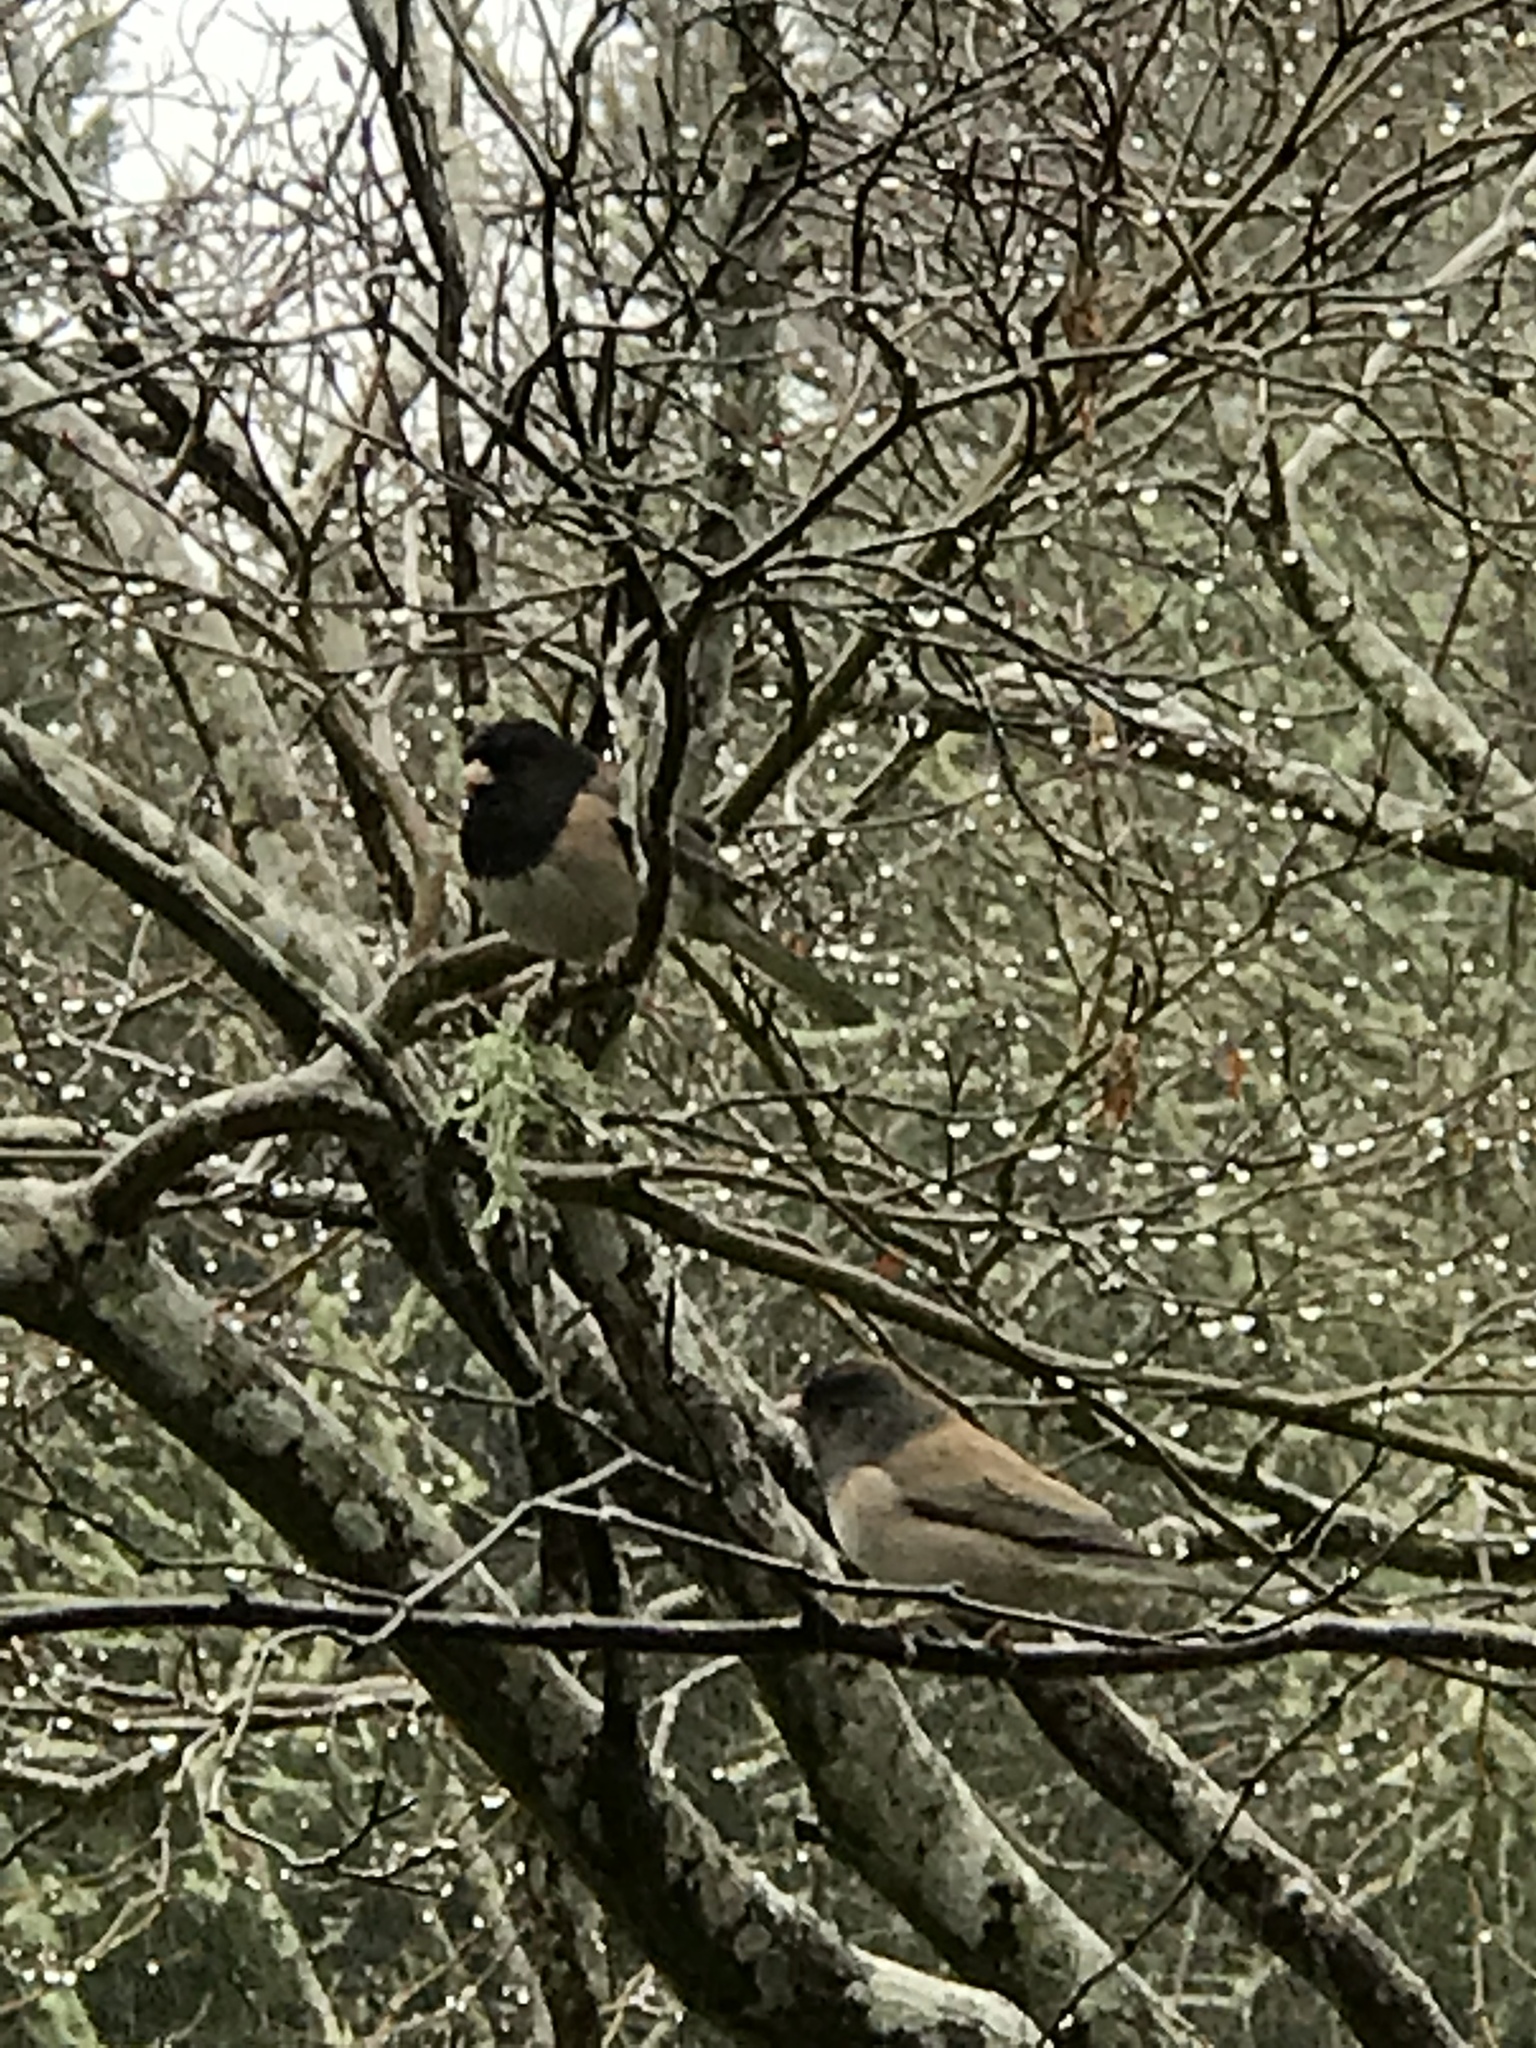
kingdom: Animalia
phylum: Chordata
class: Aves
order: Passeriformes
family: Passerellidae
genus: Junco
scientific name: Junco hyemalis
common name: Dark-eyed junco
